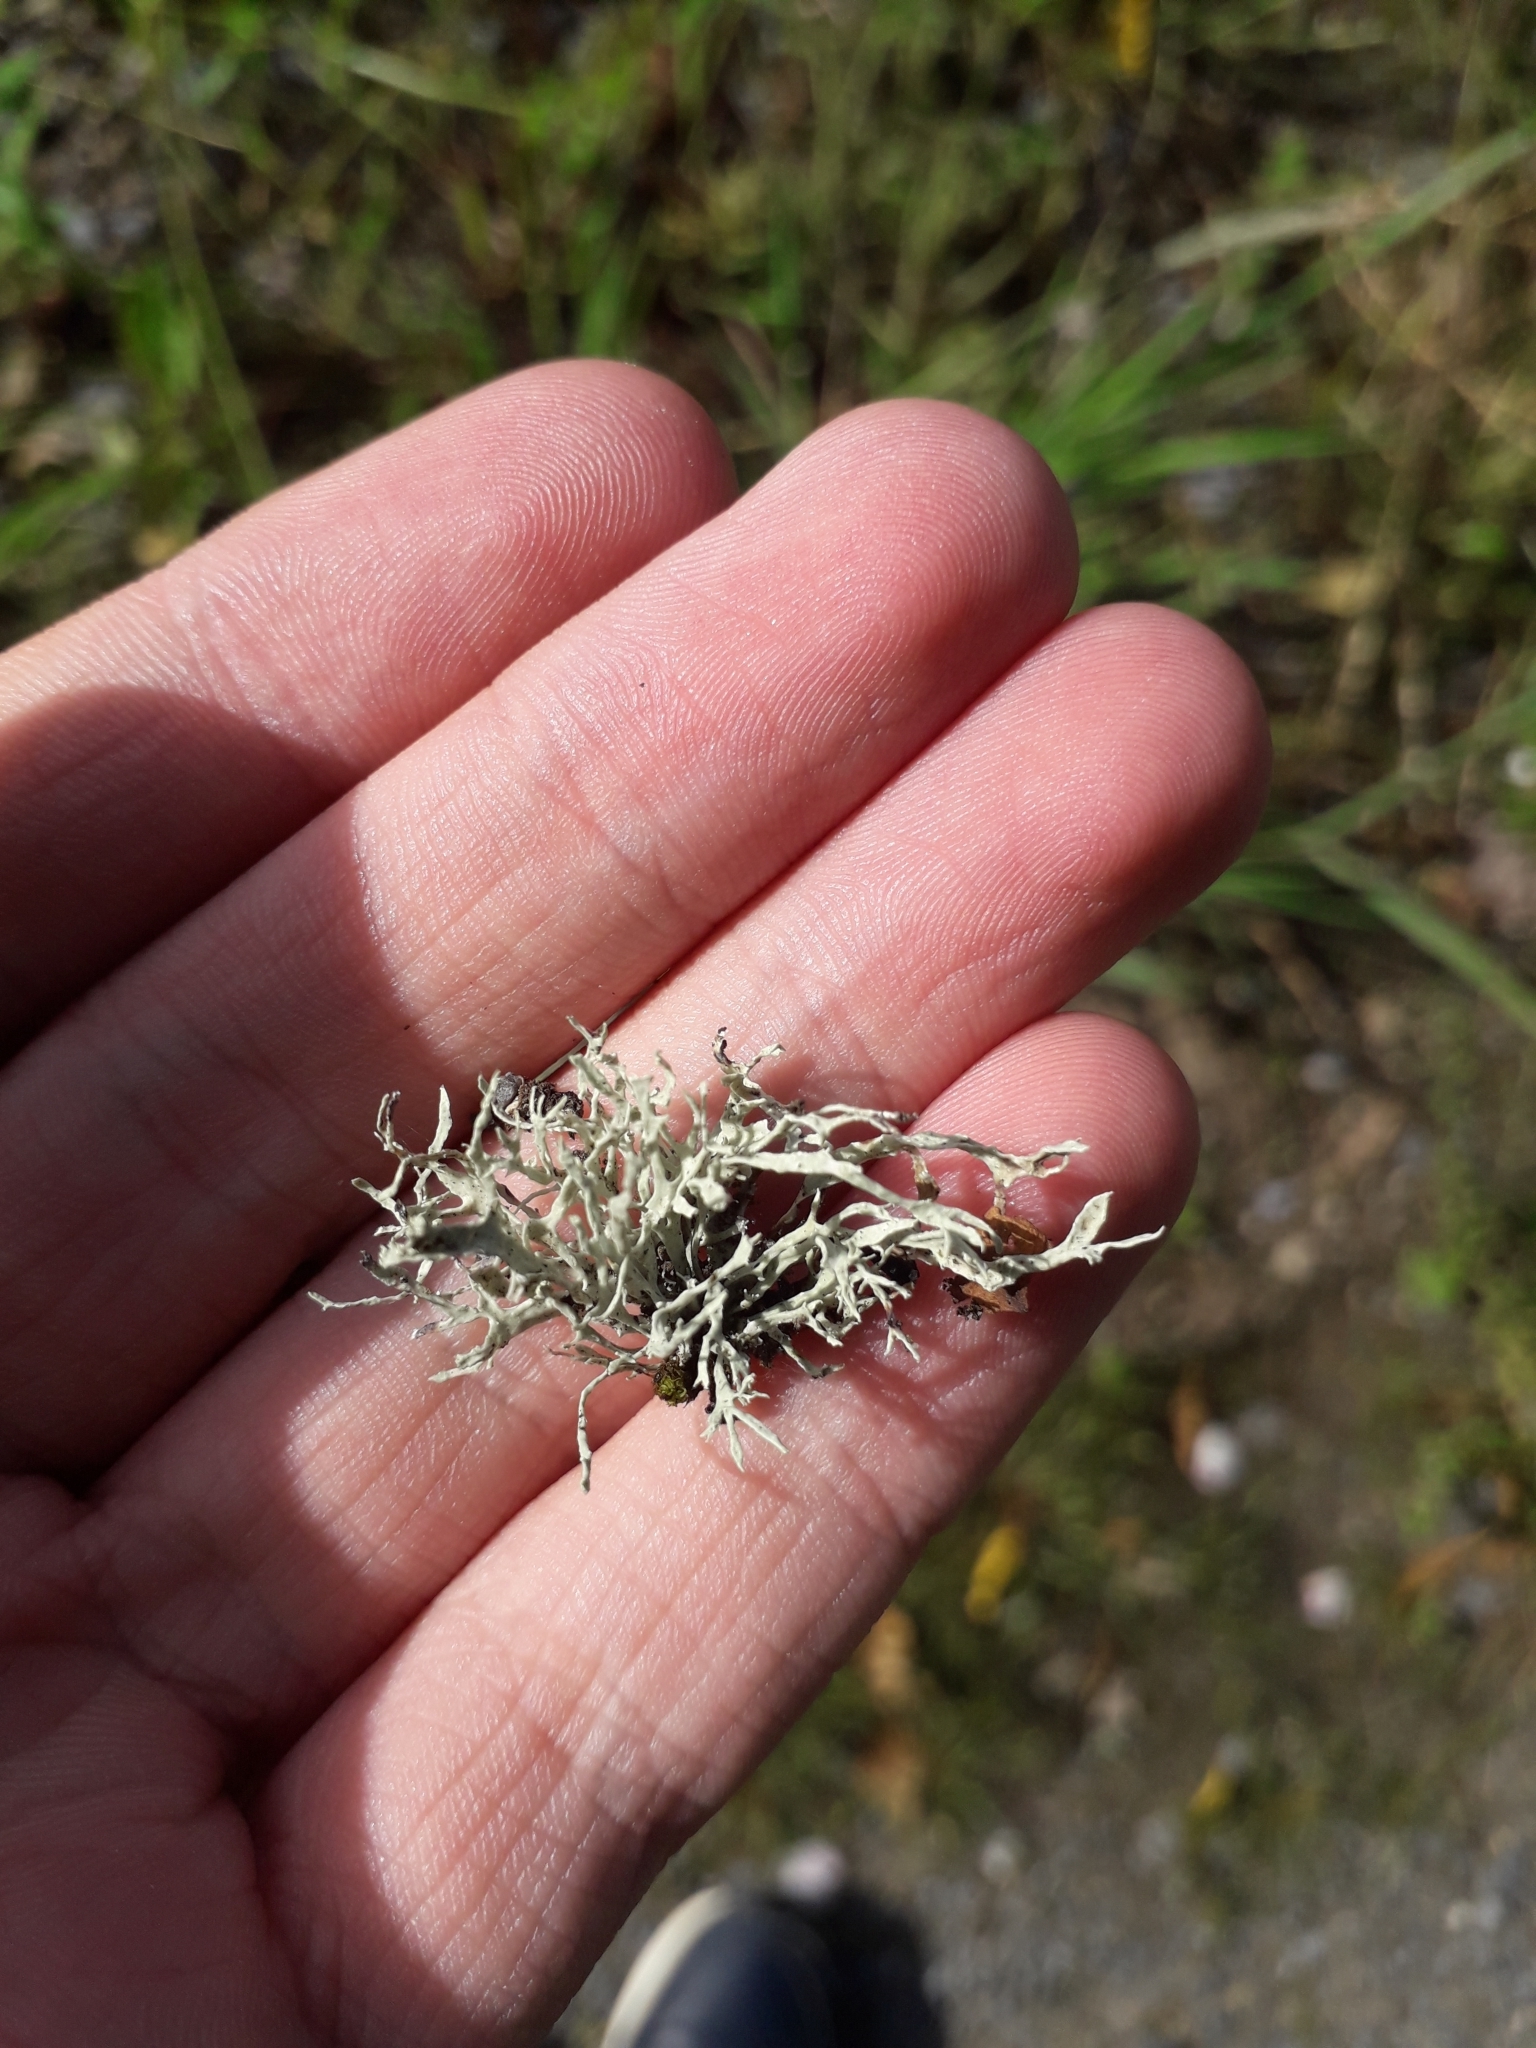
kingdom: Fungi
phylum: Ascomycota
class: Lecanoromycetes
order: Lecanorales
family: Ramalinaceae
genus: Ramalina
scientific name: Ramalina farinacea
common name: Farinose cartilage lichen
